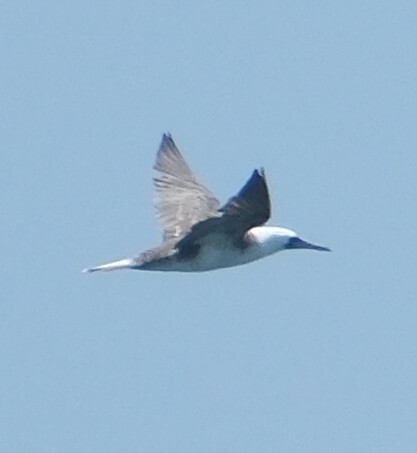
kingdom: Animalia
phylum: Chordata
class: Aves
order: Suliformes
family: Sulidae
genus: Sula
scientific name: Sula variegata
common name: Peruvian booby
